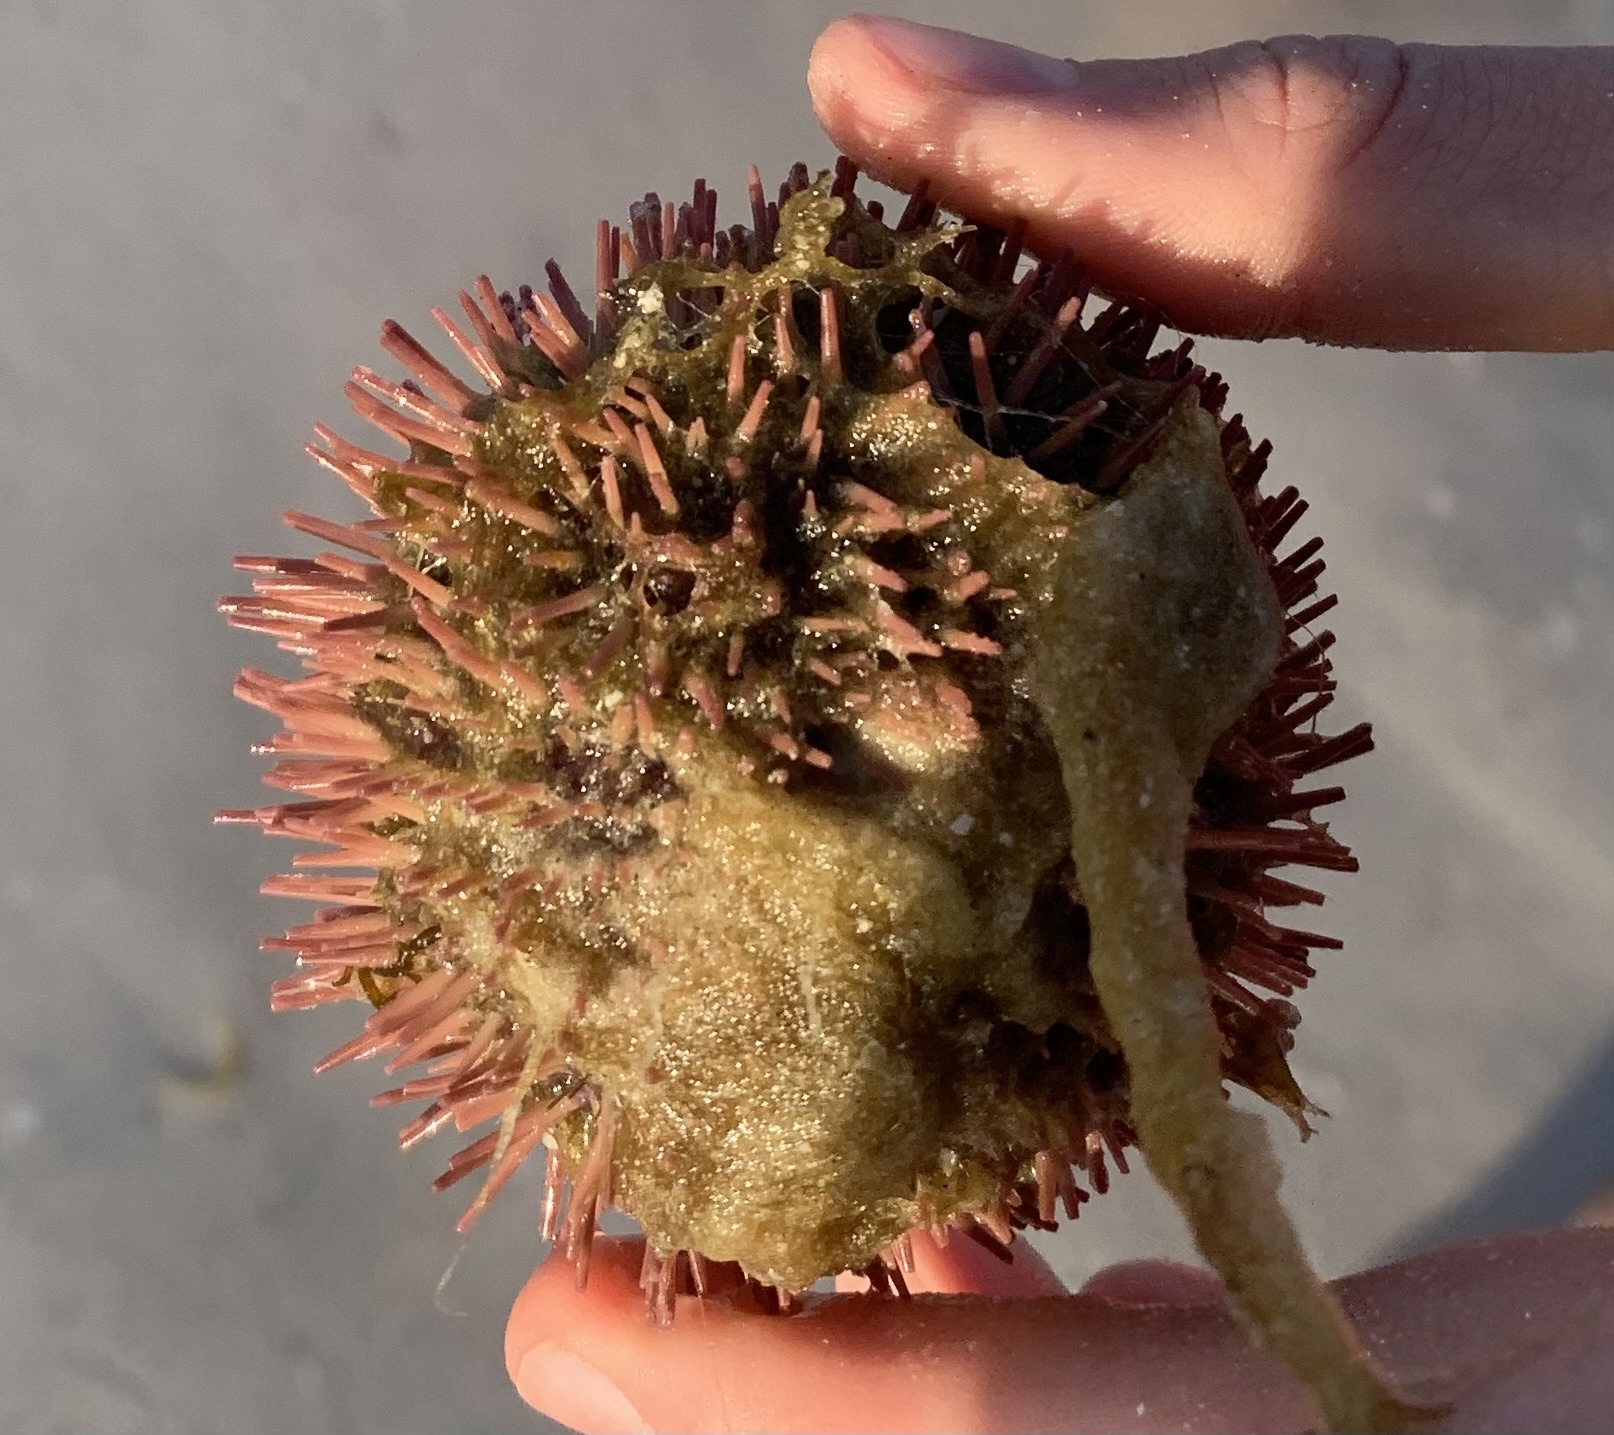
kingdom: Animalia
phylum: Echinodermata
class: Echinoidea
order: Camarodonta
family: Toxopneustidae
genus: Lytechinus
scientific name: Lytechinus variegatus
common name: Variegated urchin
